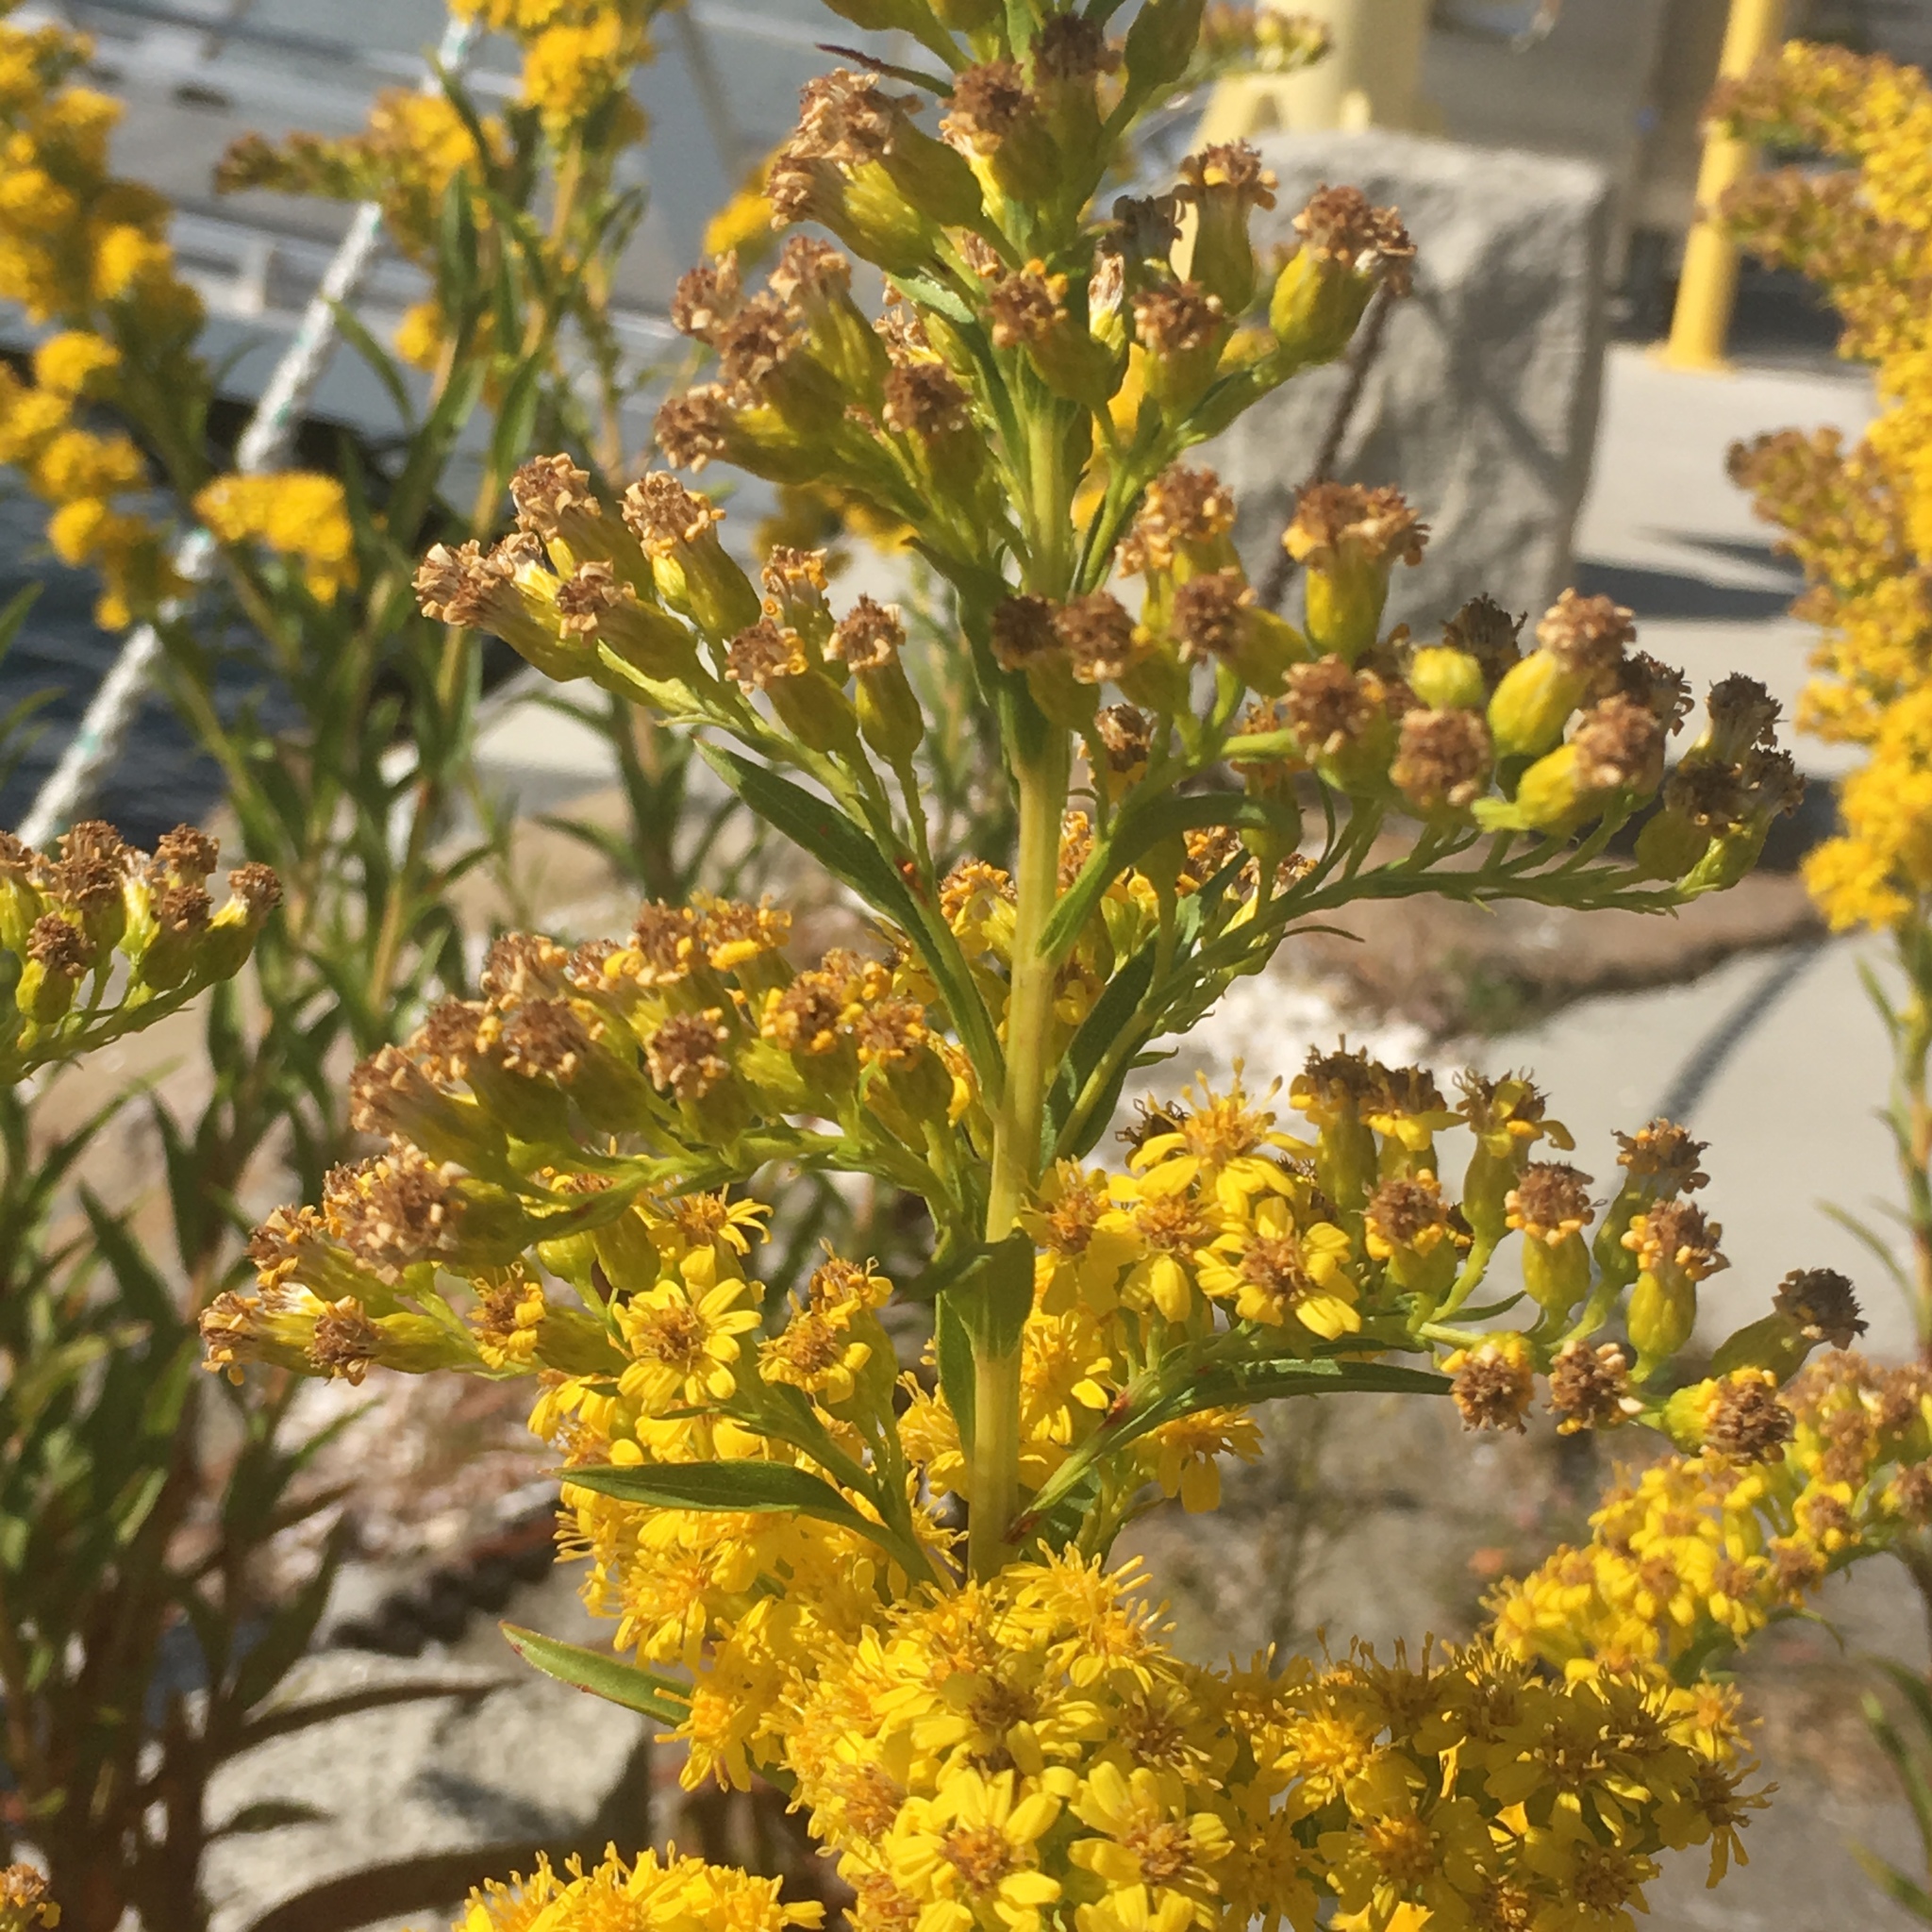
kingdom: Plantae
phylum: Tracheophyta
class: Magnoliopsida
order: Asterales
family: Asteraceae
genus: Solidago
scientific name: Solidago sempervirens
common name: Salt-marsh goldenrod
